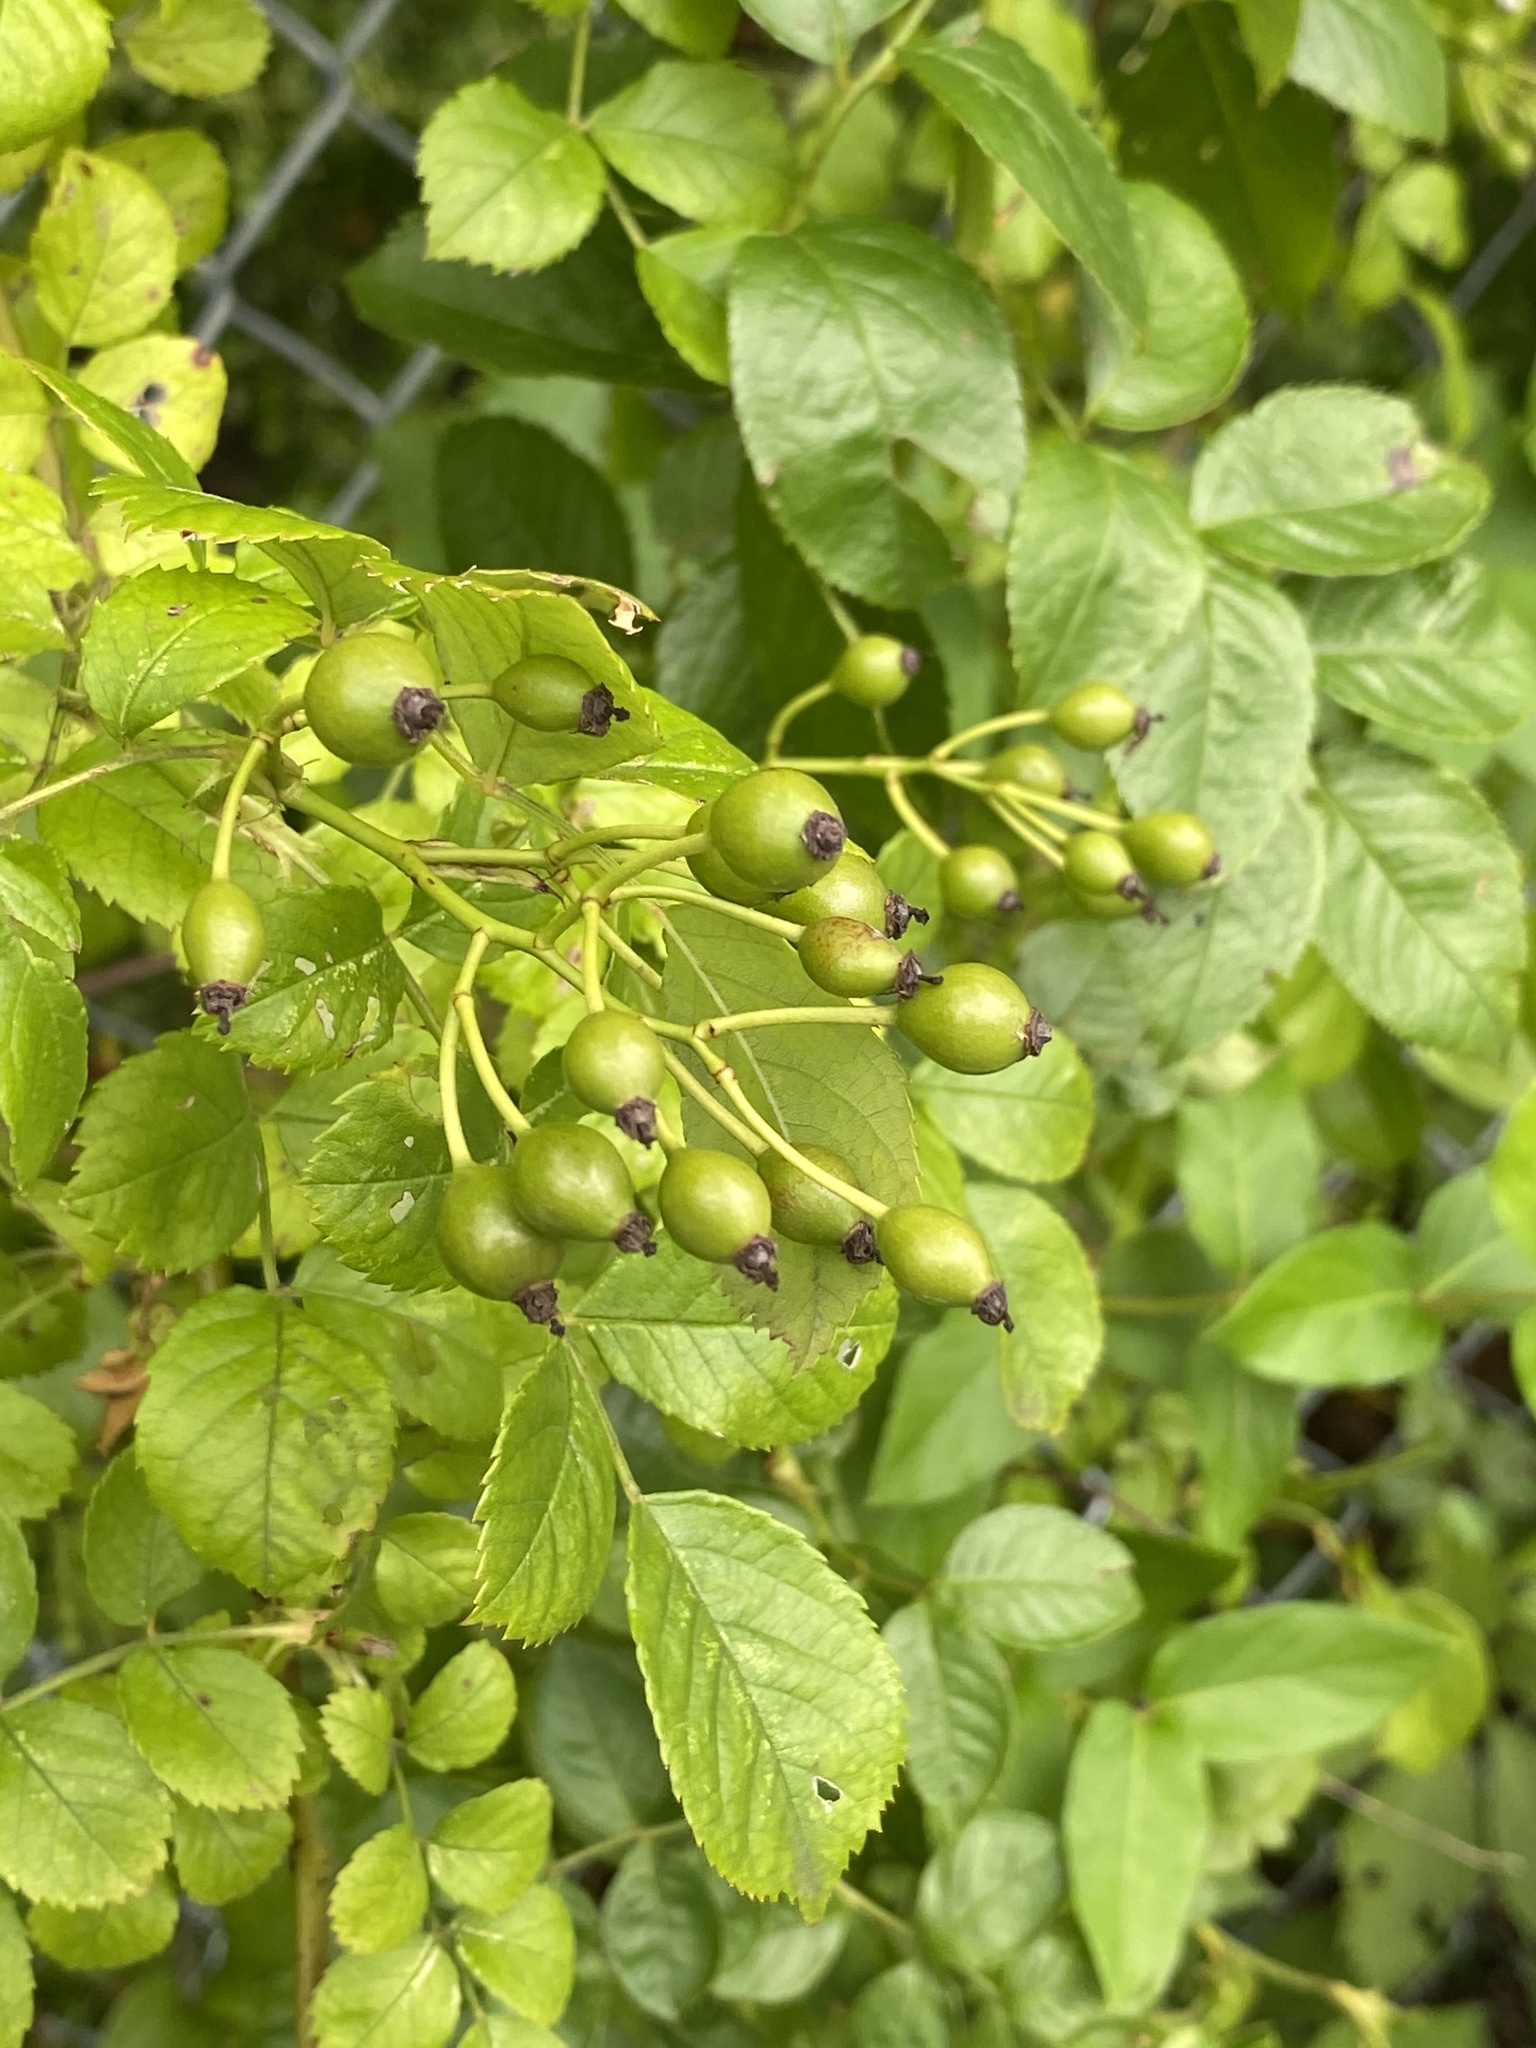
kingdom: Plantae
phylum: Tracheophyta
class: Magnoliopsida
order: Rosales
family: Rosaceae
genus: Rosa
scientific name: Rosa multiflora
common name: Multiflora rose
